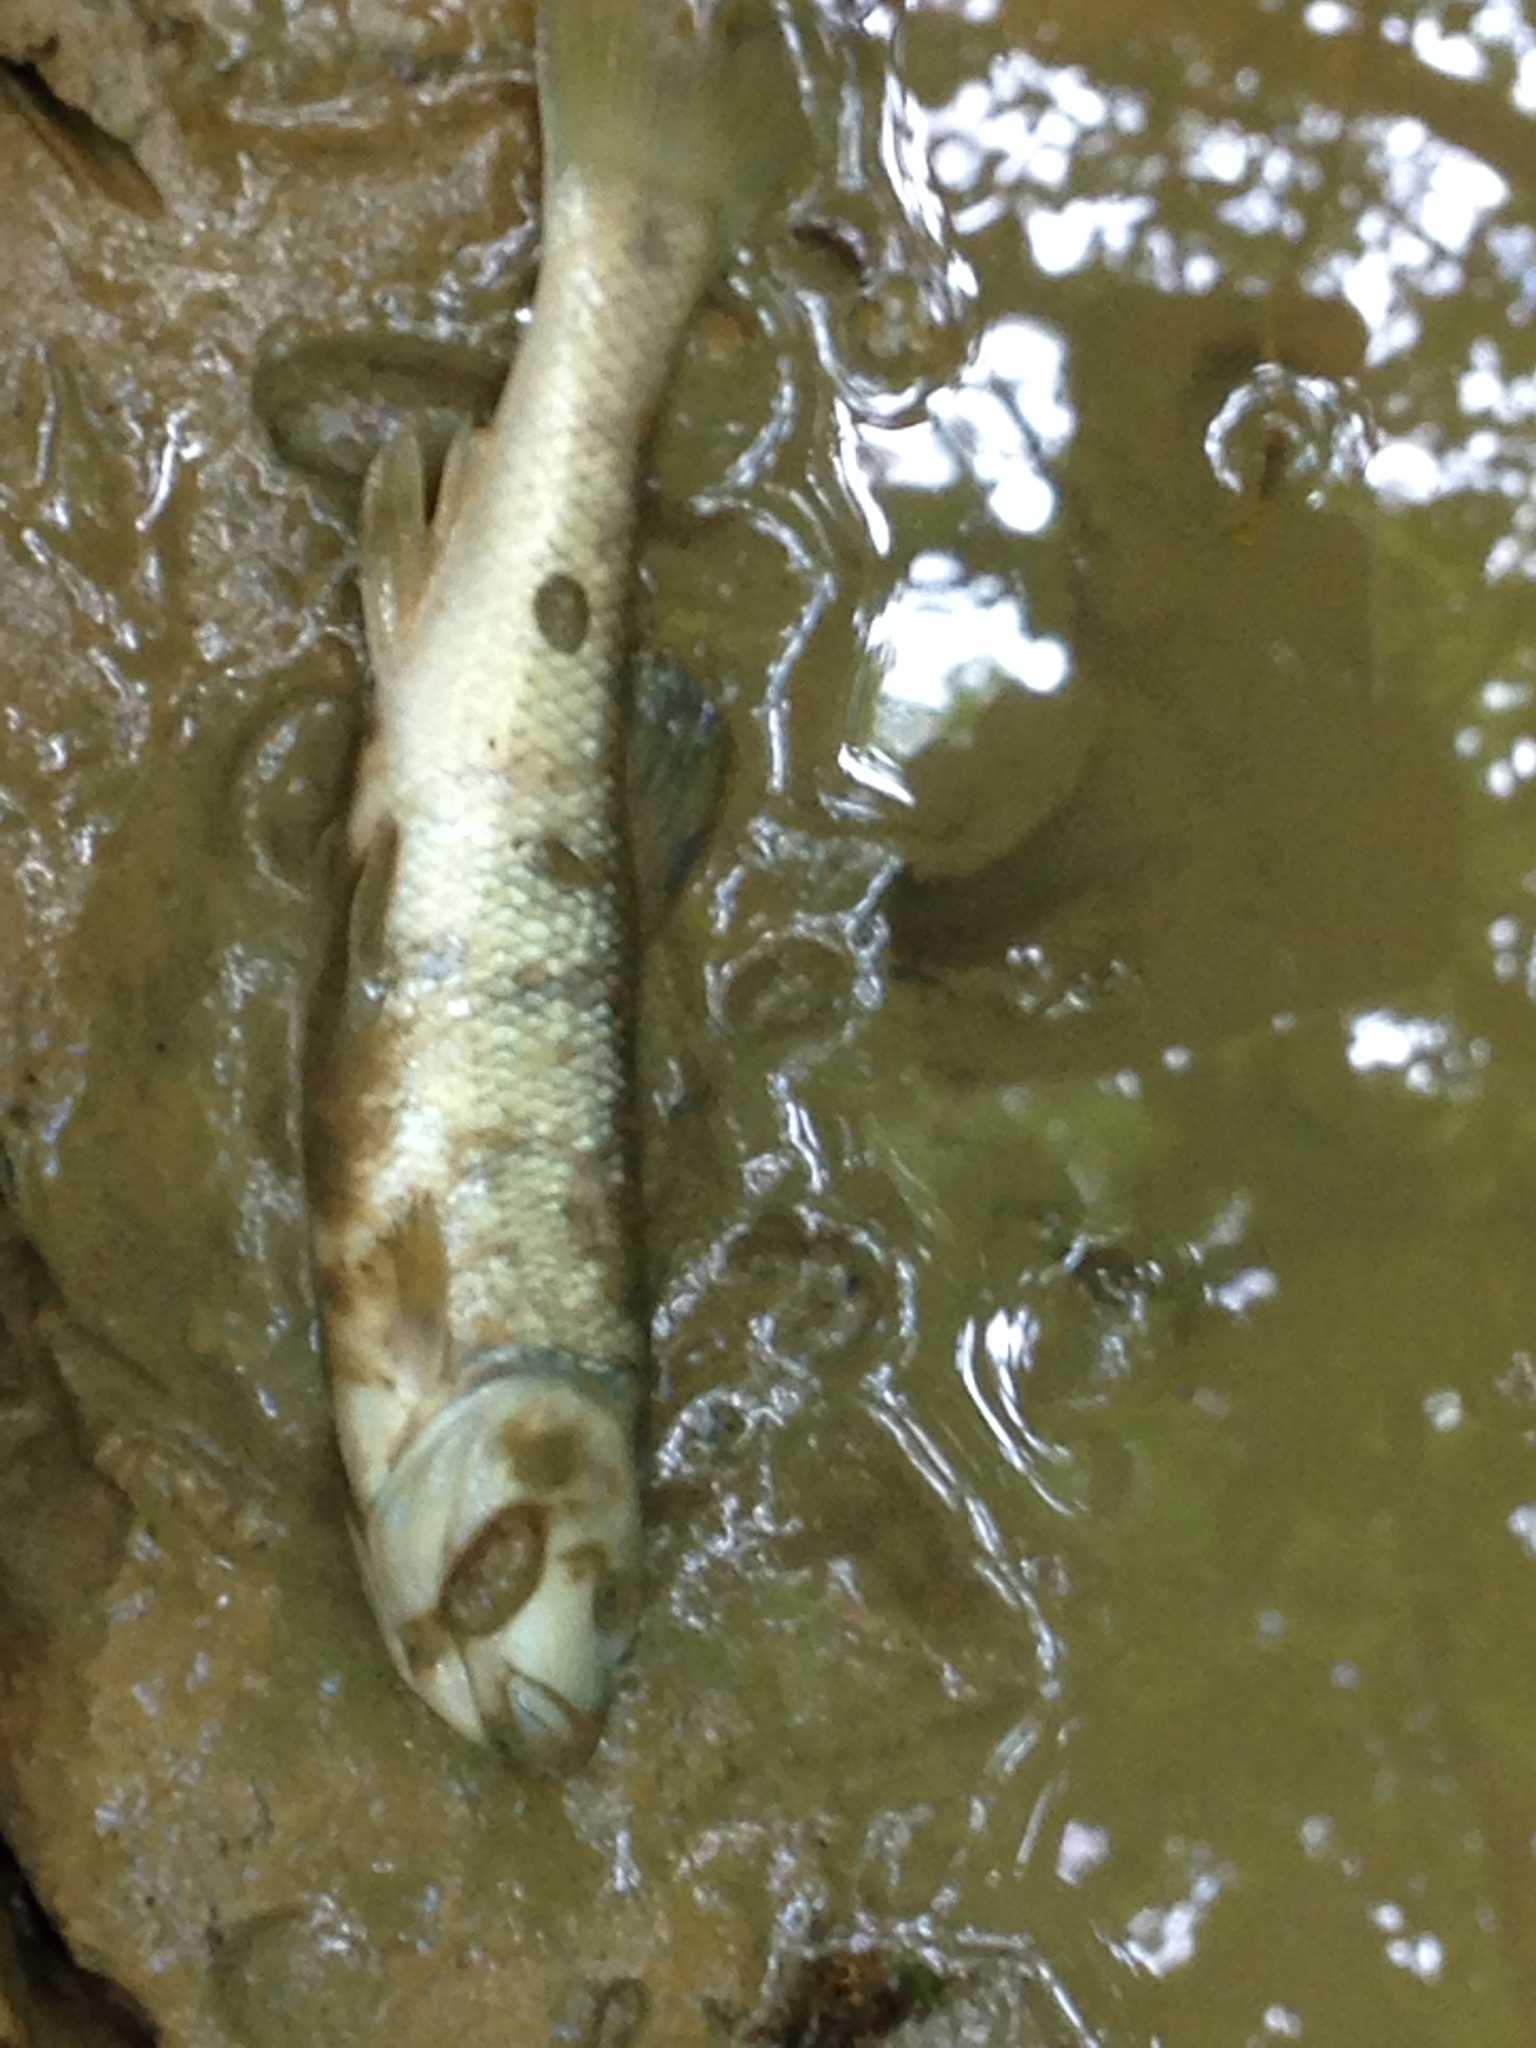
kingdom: Animalia
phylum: Chordata
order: Cypriniformes
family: Cyprinidae
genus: Semotilus
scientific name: Semotilus atromaculatus
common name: Creek chub
